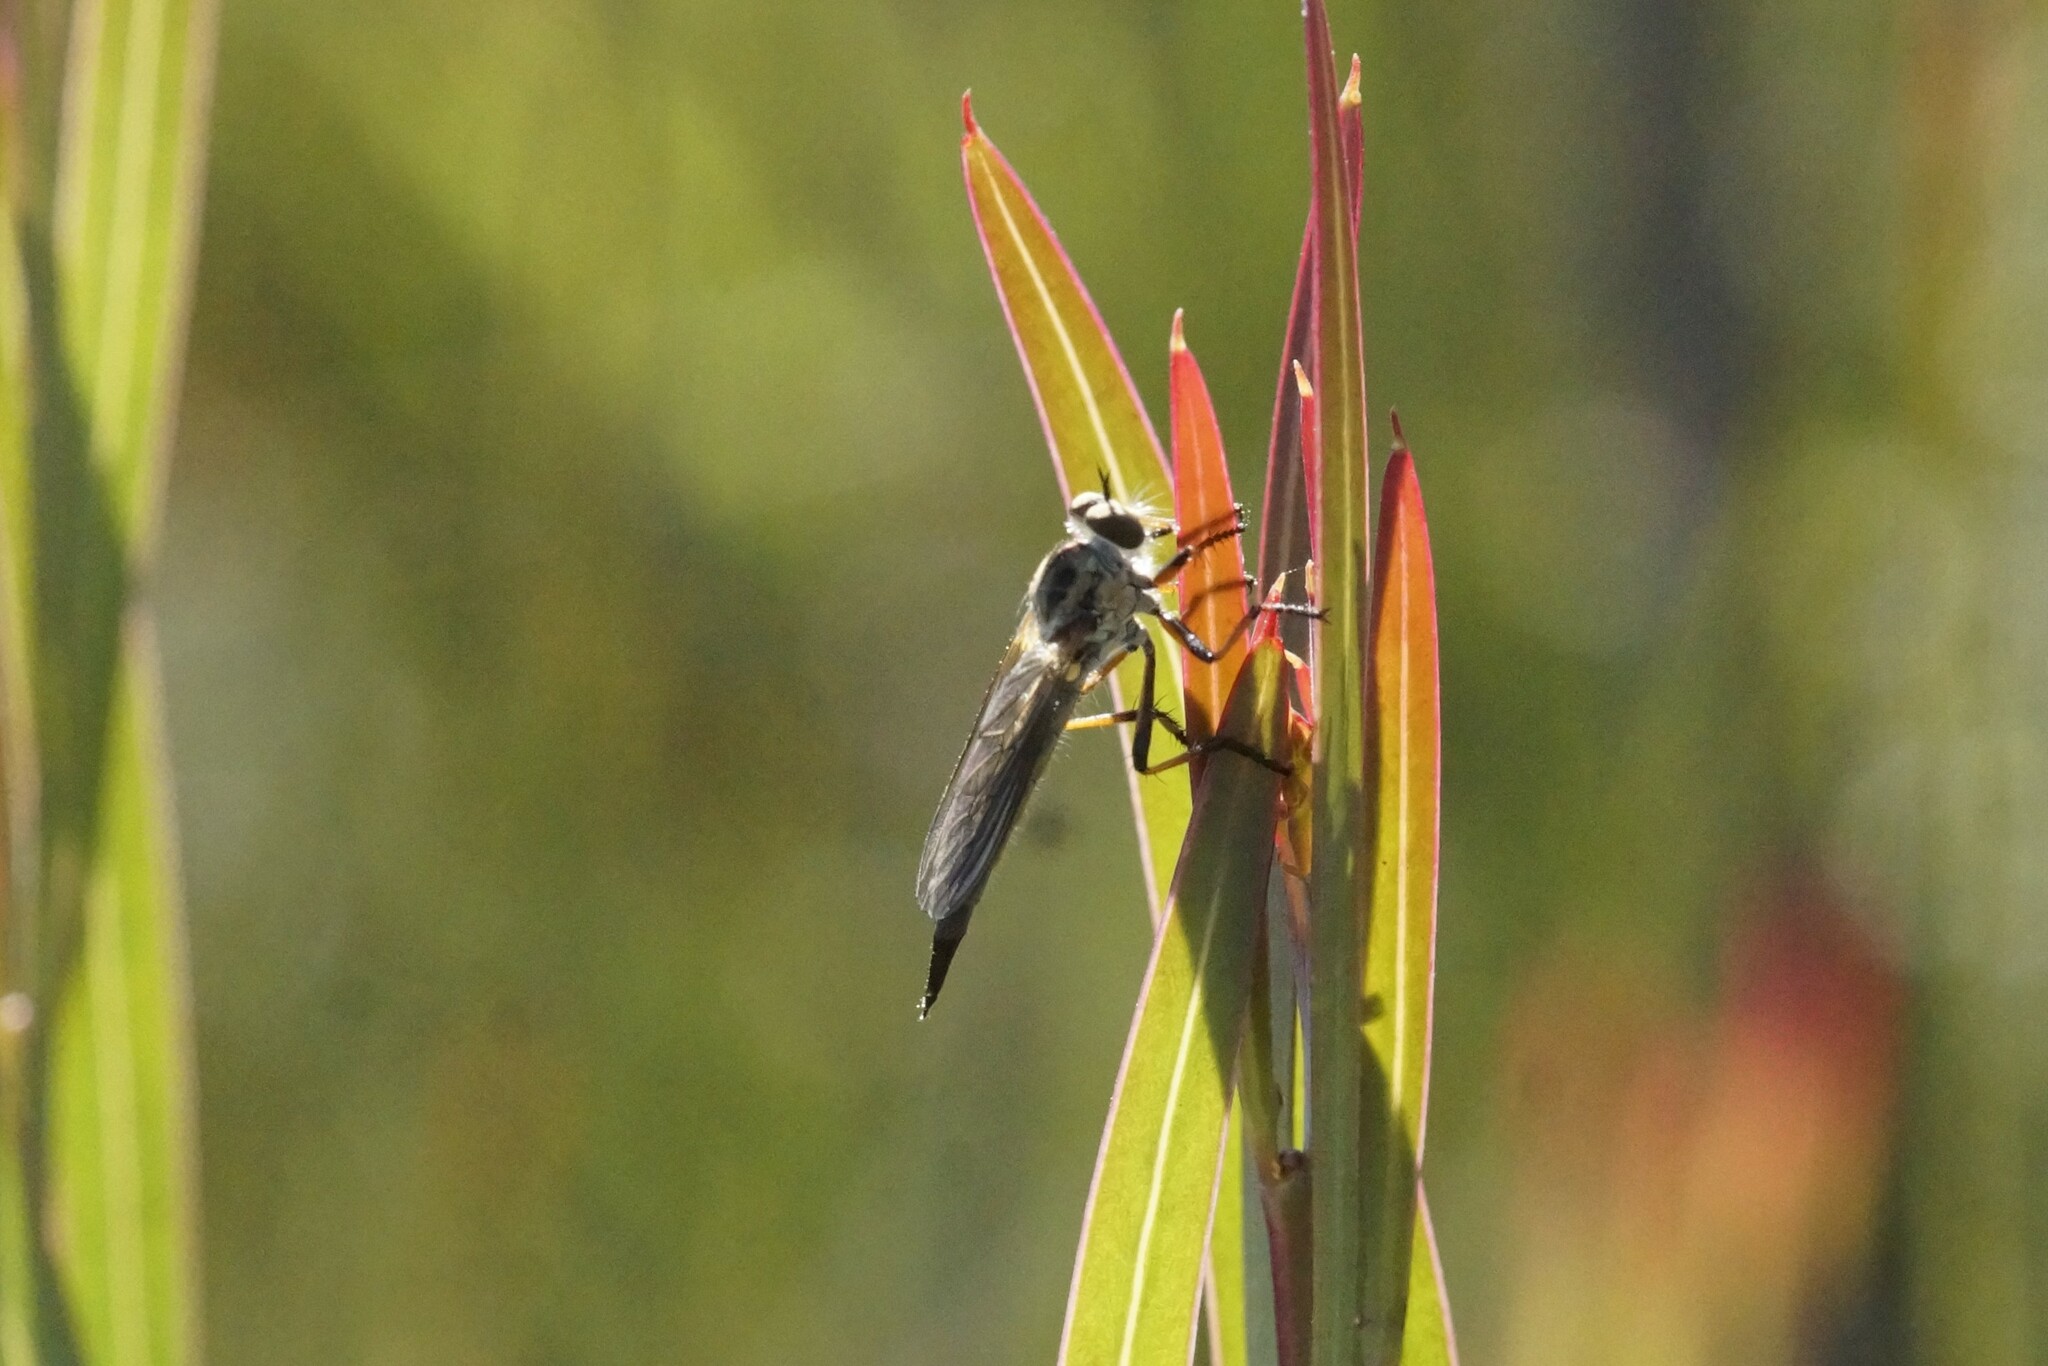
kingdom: Animalia
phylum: Arthropoda
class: Insecta
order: Diptera
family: Asilidae
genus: Cerdistus
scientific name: Cerdistus rusticanoides
